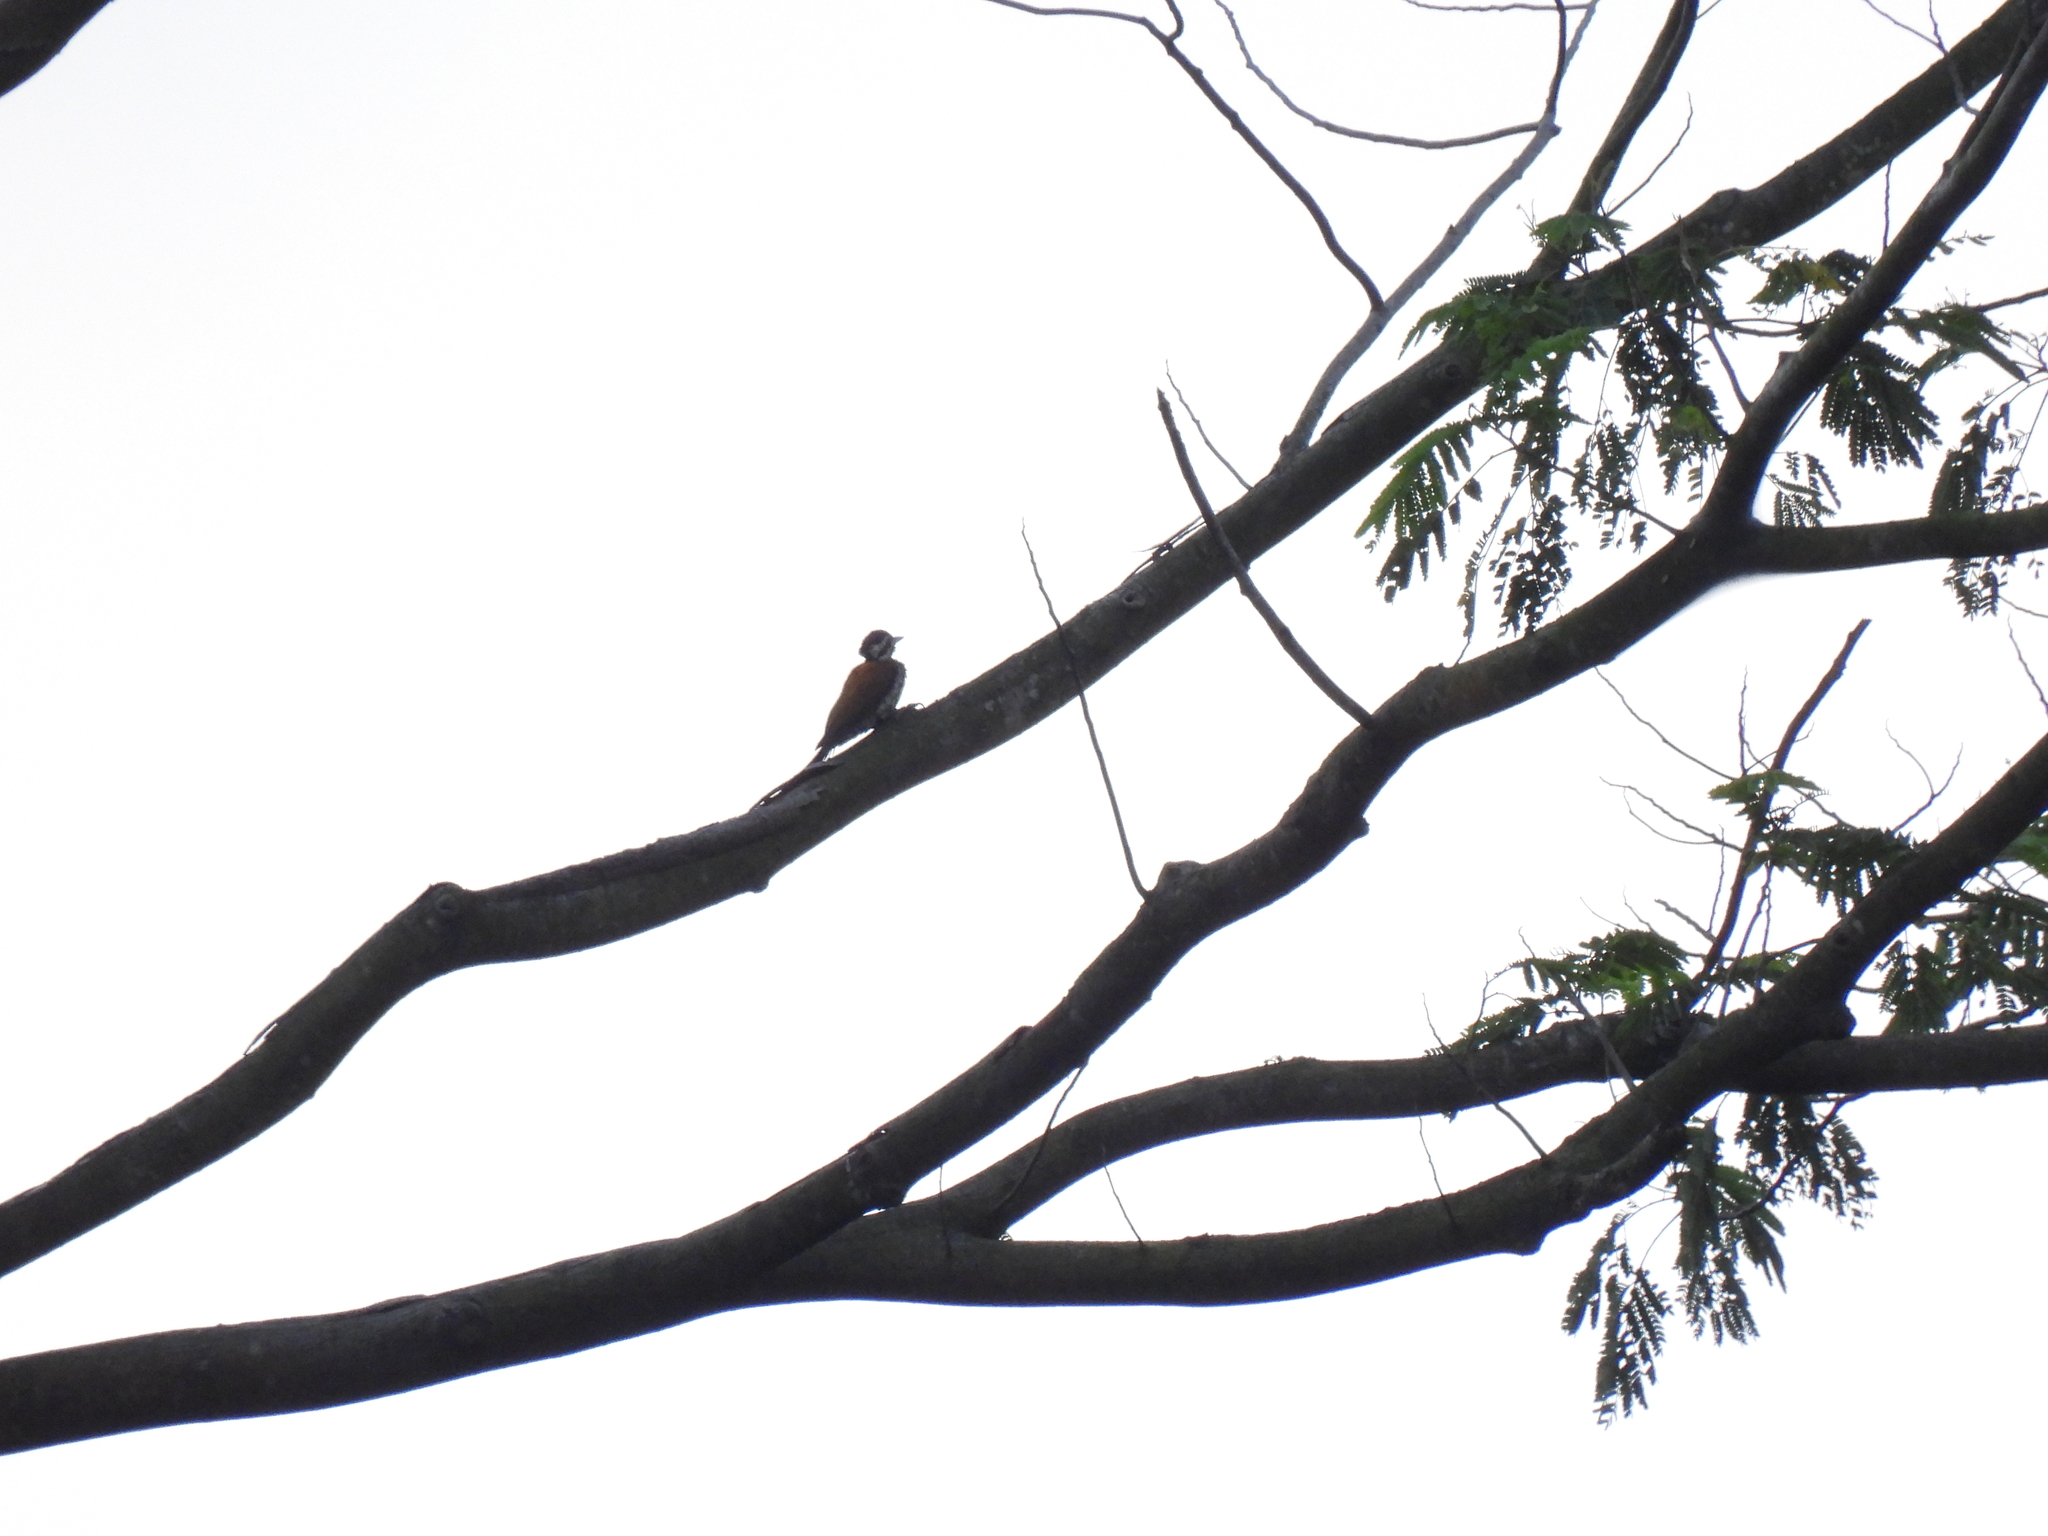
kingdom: Animalia
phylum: Chordata
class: Aves
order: Piciformes
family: Picidae
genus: Dinopium
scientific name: Dinopium javanense
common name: Common flameback
